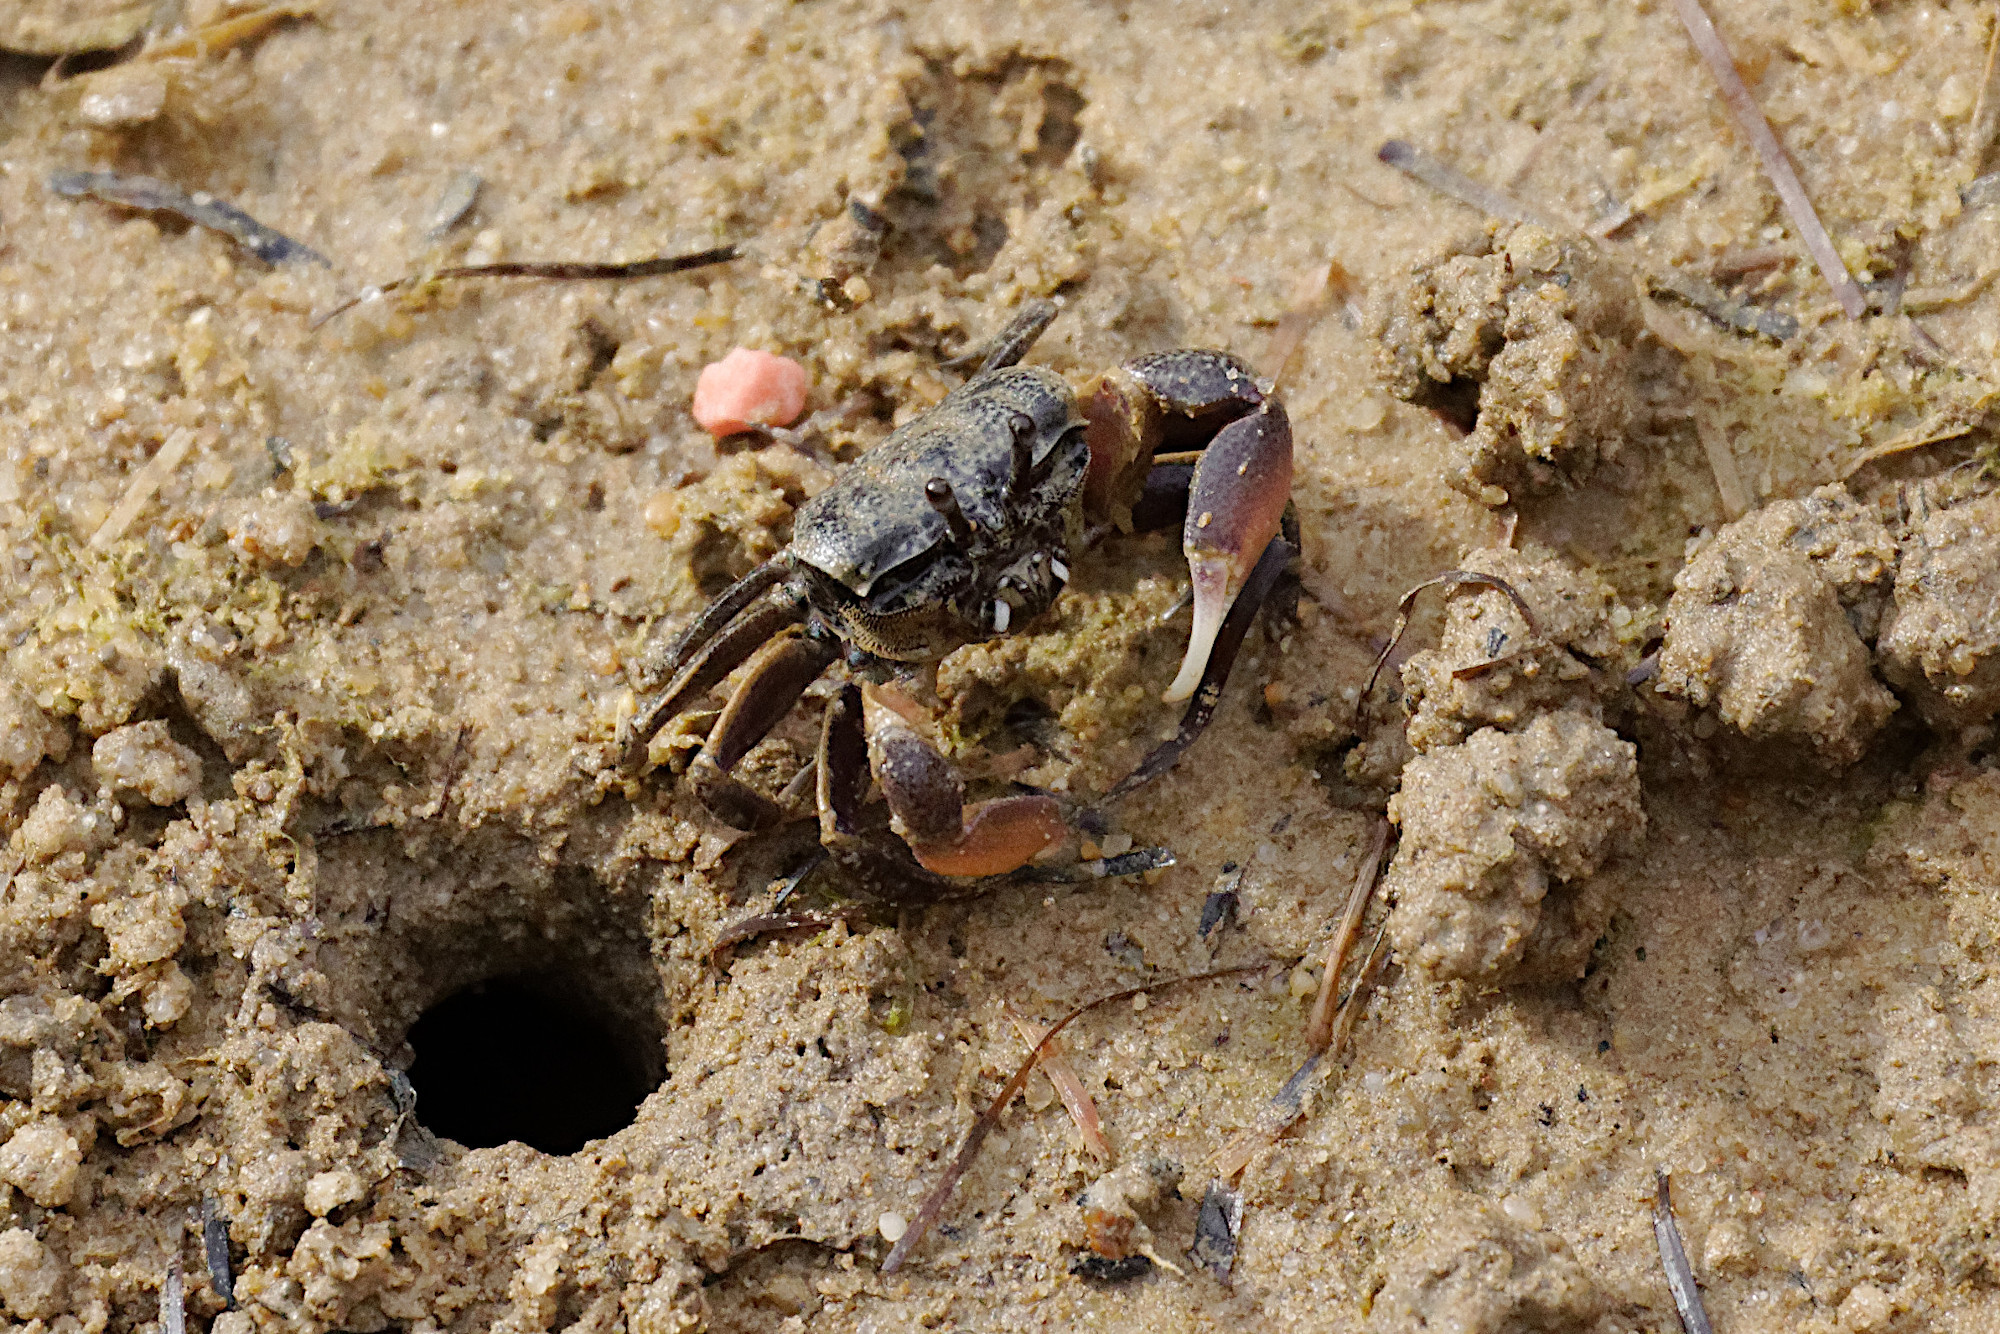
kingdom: Animalia
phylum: Arthropoda
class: Malacostraca
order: Decapoda
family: Heloeciidae
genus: Heloecius
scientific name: Heloecius cordiformis
